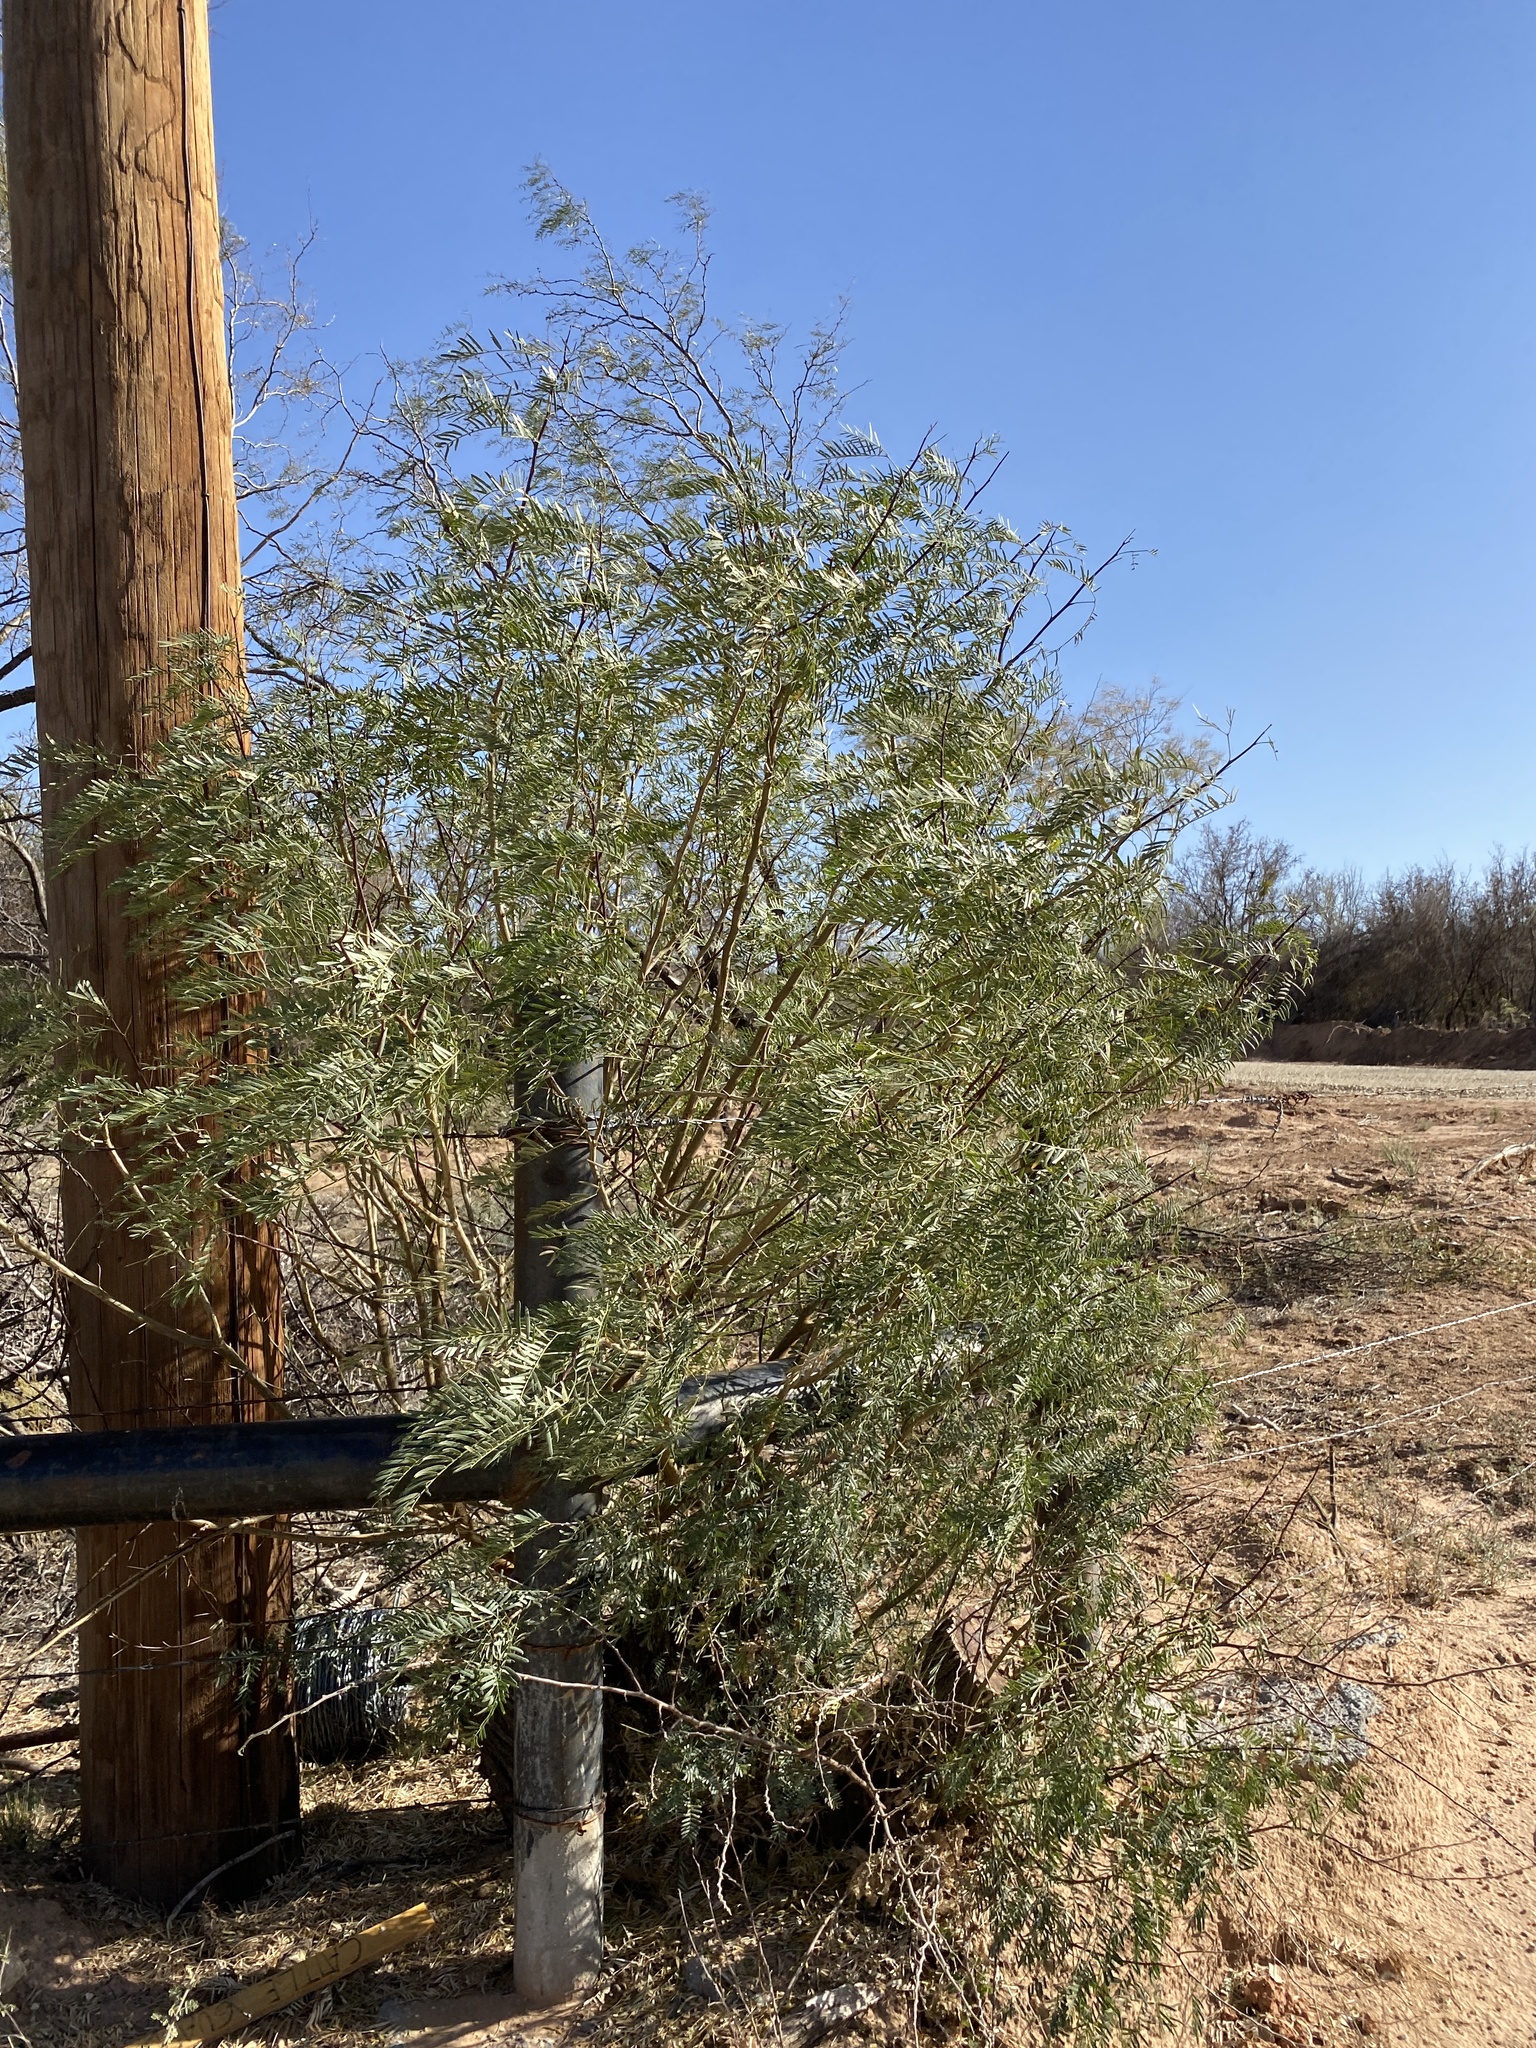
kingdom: Plantae
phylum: Tracheophyta
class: Magnoliopsida
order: Fabales
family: Fabaceae
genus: Prosopis
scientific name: Prosopis glandulosa
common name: Honey mesquite
